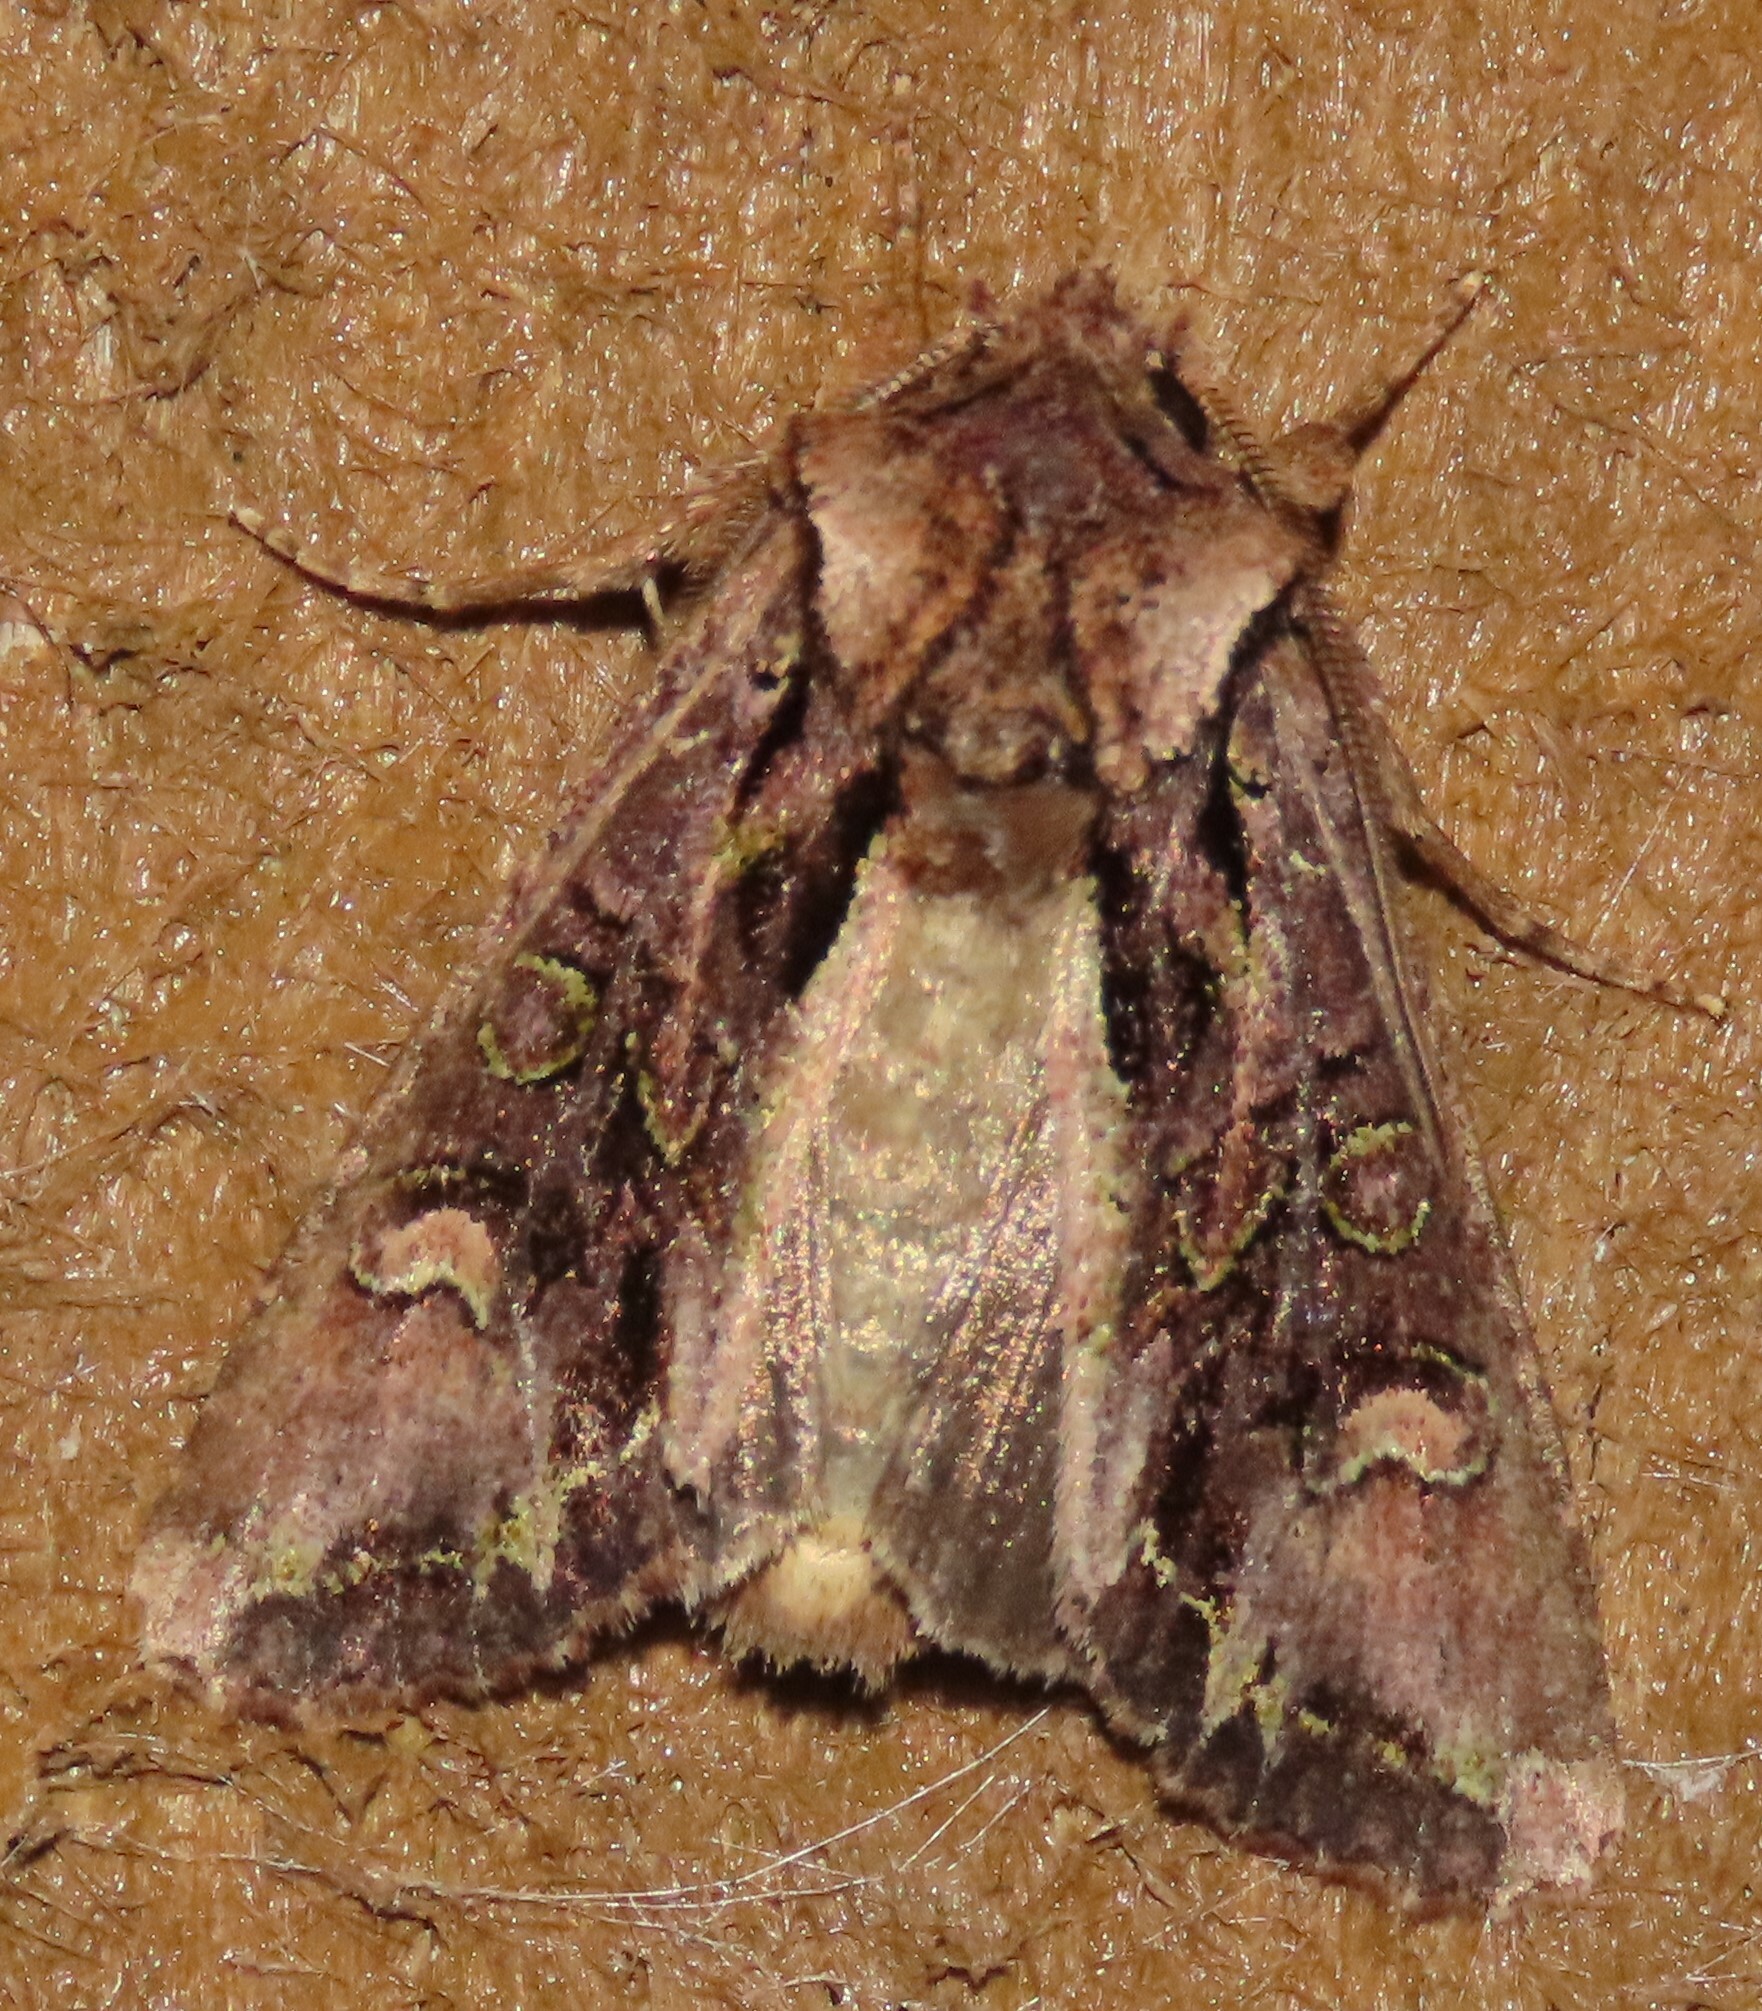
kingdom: Animalia
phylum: Arthropoda
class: Insecta
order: Lepidoptera
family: Noctuidae
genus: Ichneutica
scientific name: Ichneutica insignis
